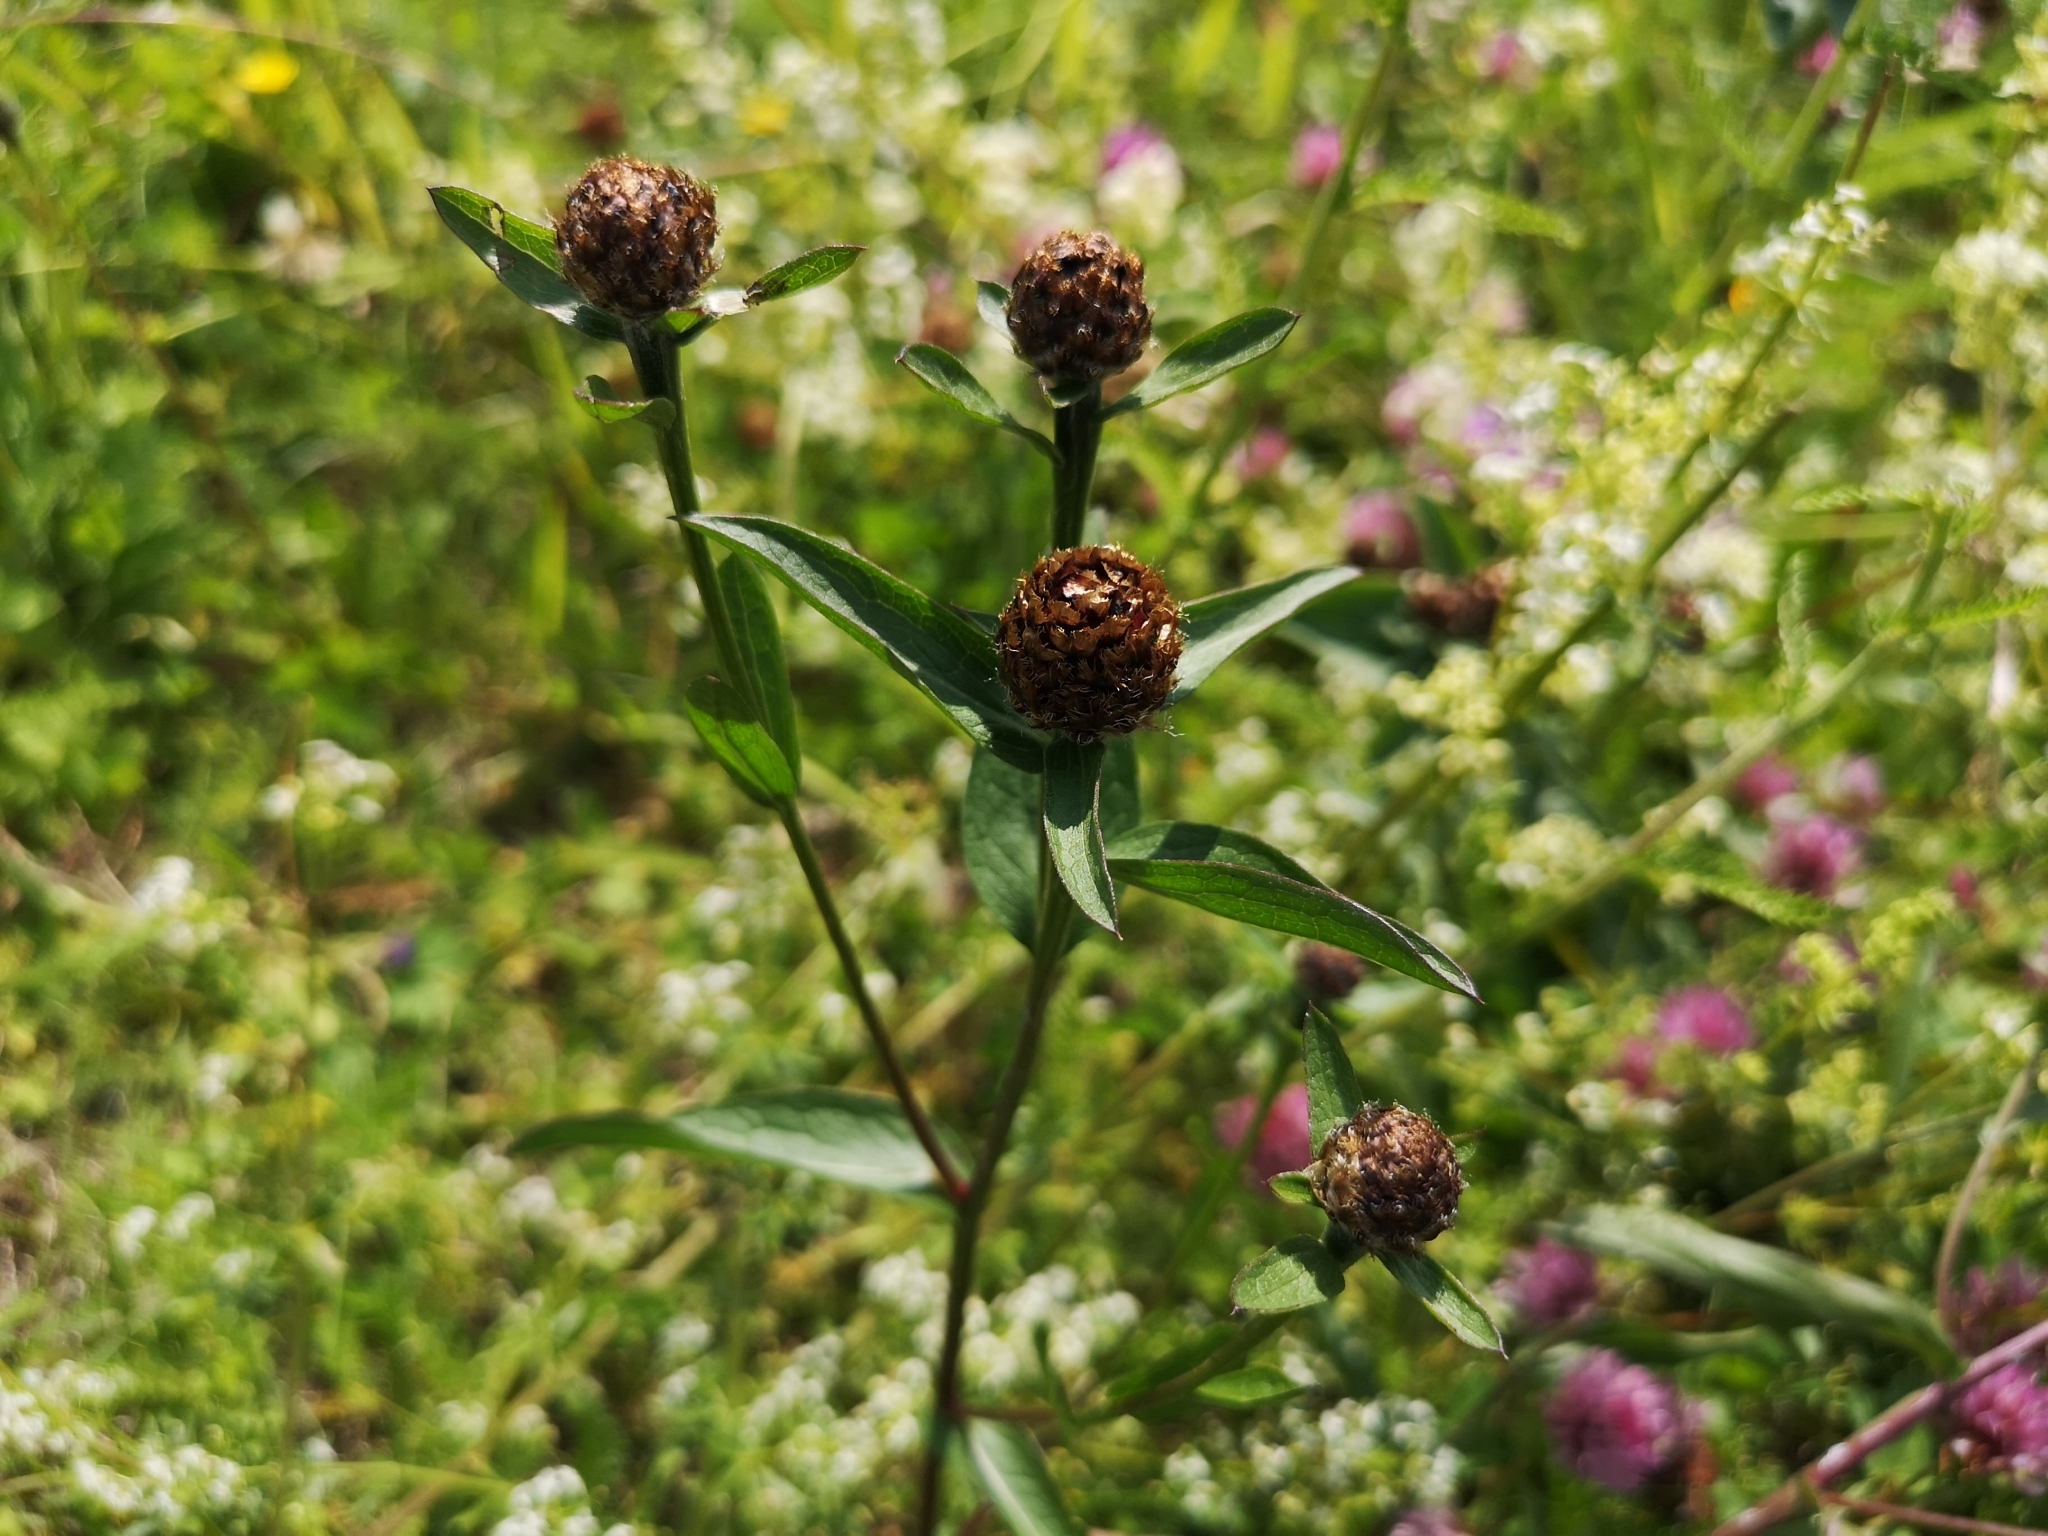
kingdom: Plantae
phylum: Tracheophyta
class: Magnoliopsida
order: Asterales
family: Asteraceae
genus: Centaurea
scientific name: Centaurea jacea
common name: Brown knapweed
